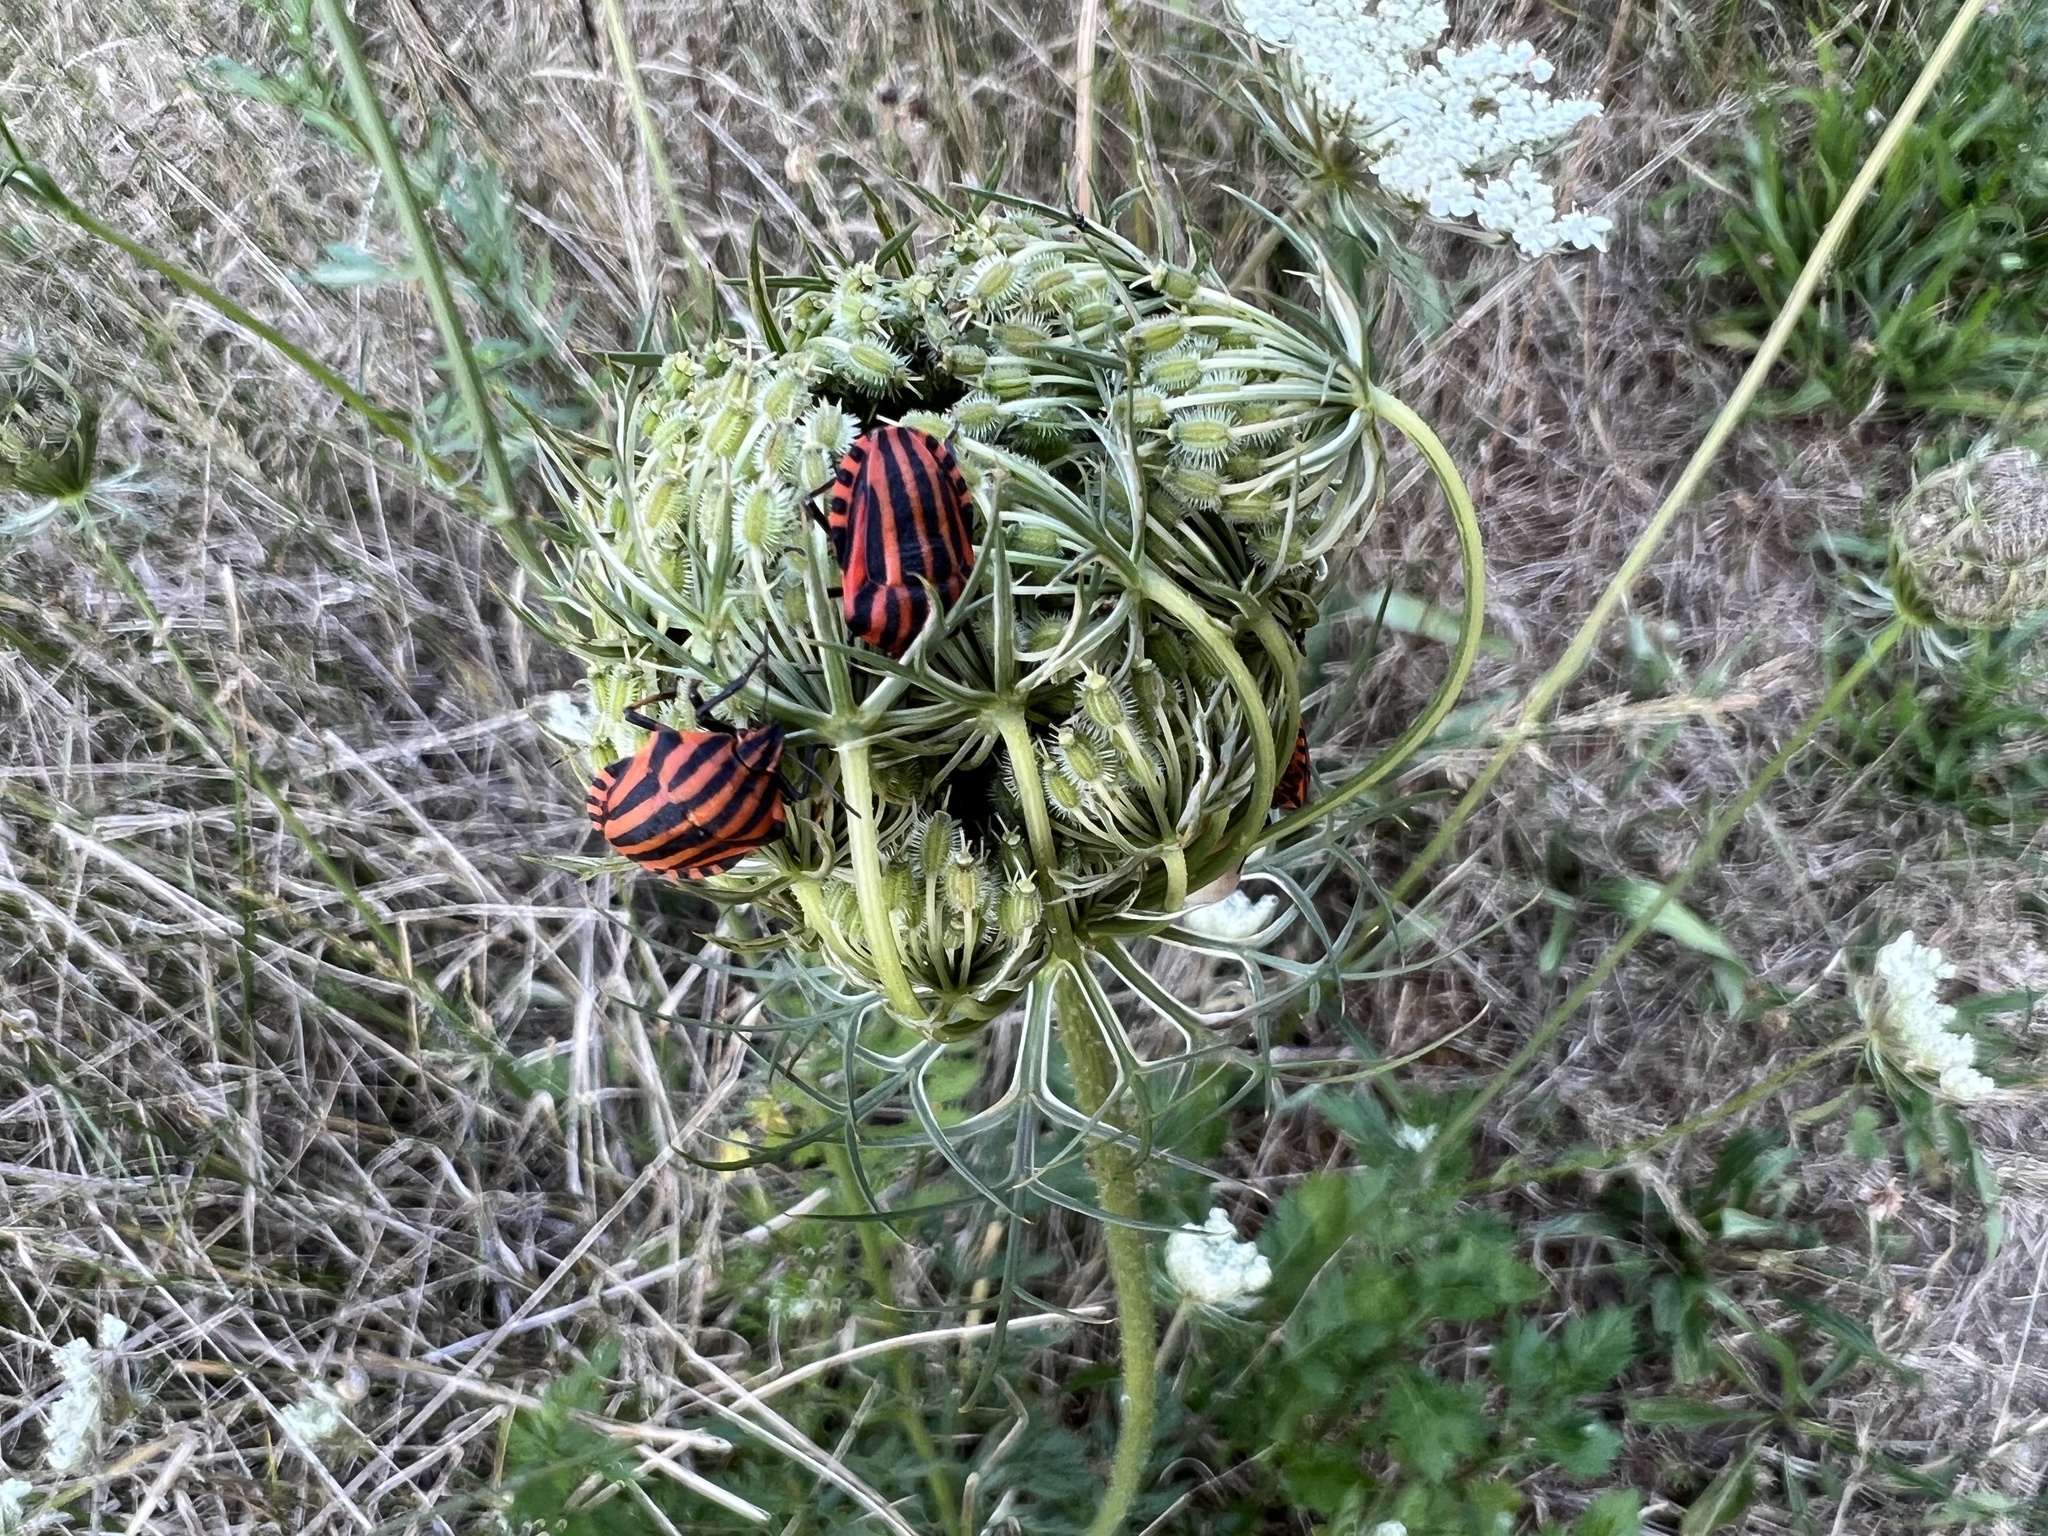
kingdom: Animalia
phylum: Arthropoda
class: Insecta
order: Hemiptera
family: Pentatomidae
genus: Graphosoma
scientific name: Graphosoma italicum
